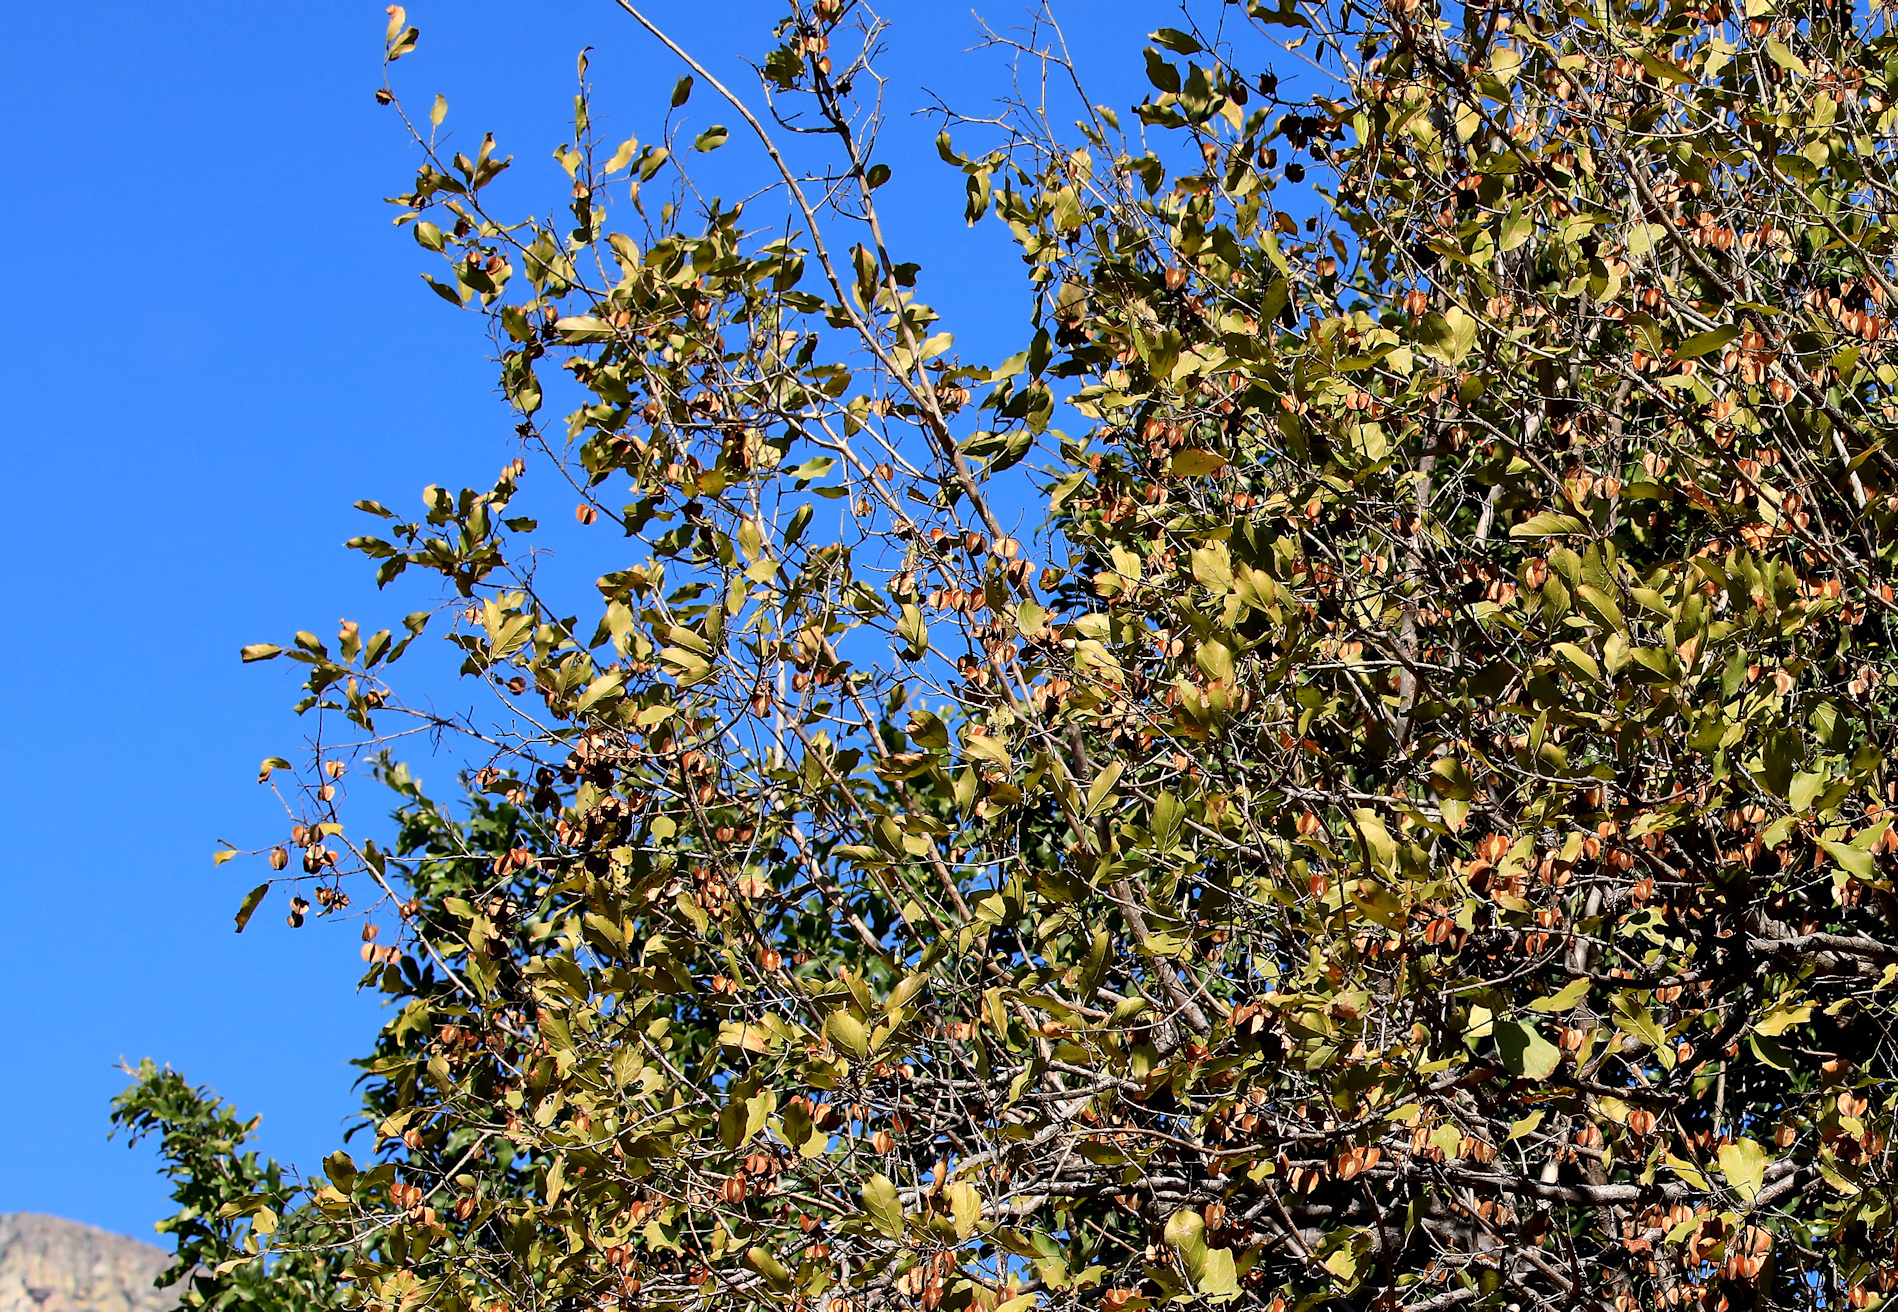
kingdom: Plantae
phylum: Tracheophyta
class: Magnoliopsida
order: Myrtales
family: Combretaceae
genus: Combretum
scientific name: Combretum apiculatum
